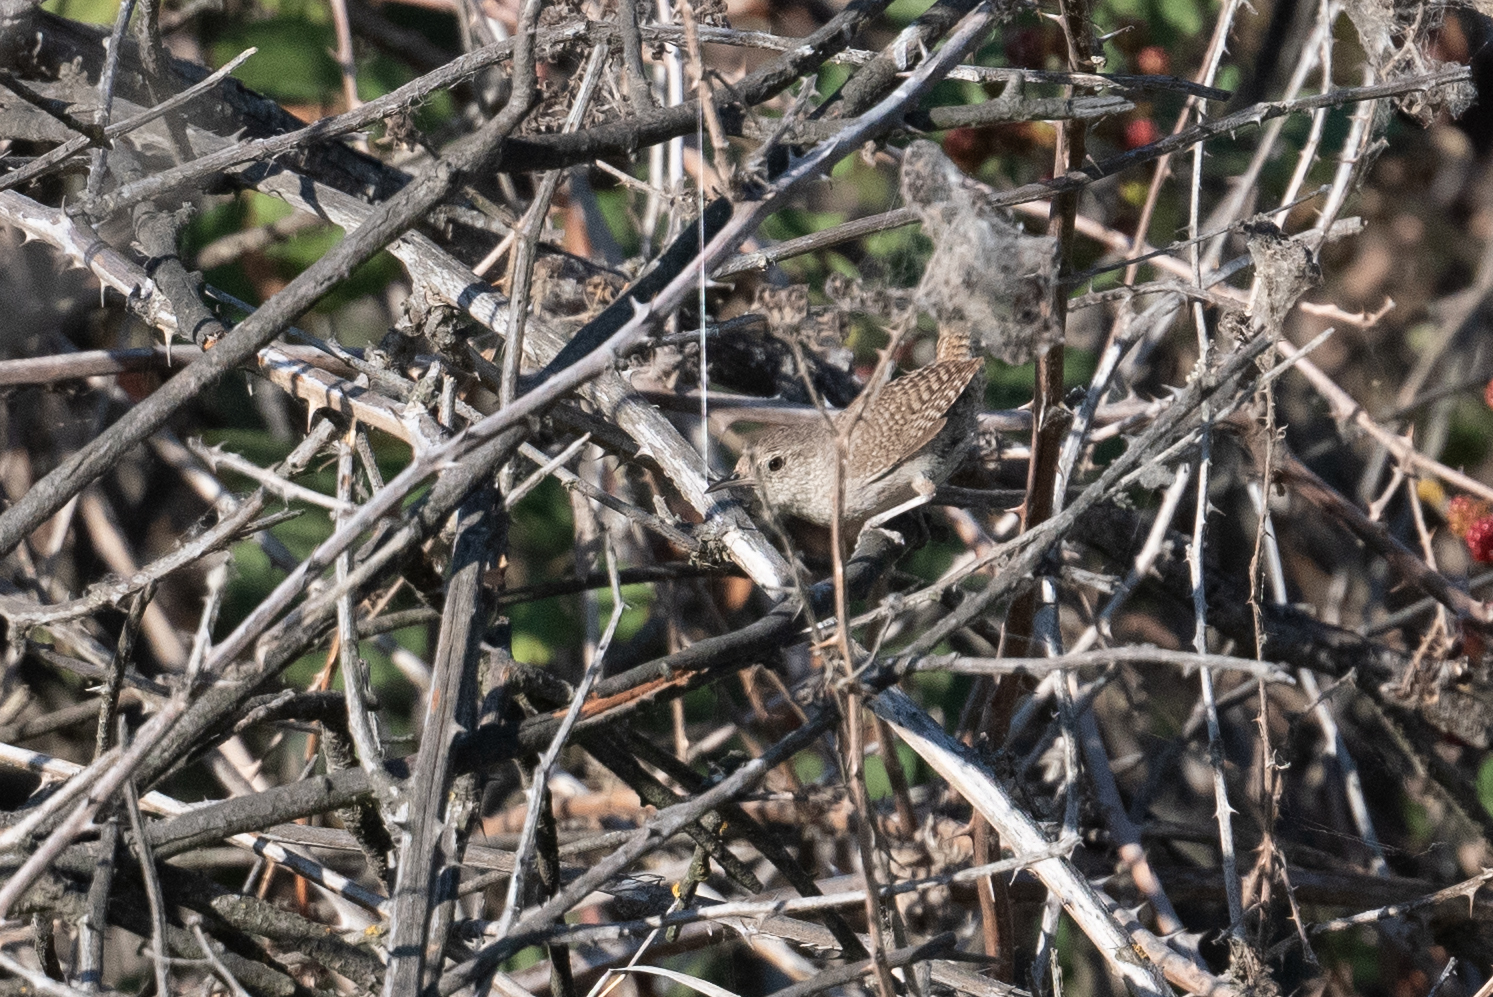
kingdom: Animalia
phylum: Chordata
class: Aves
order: Passeriformes
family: Troglodytidae
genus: Troglodytes
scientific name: Troglodytes aedon
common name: House wren
